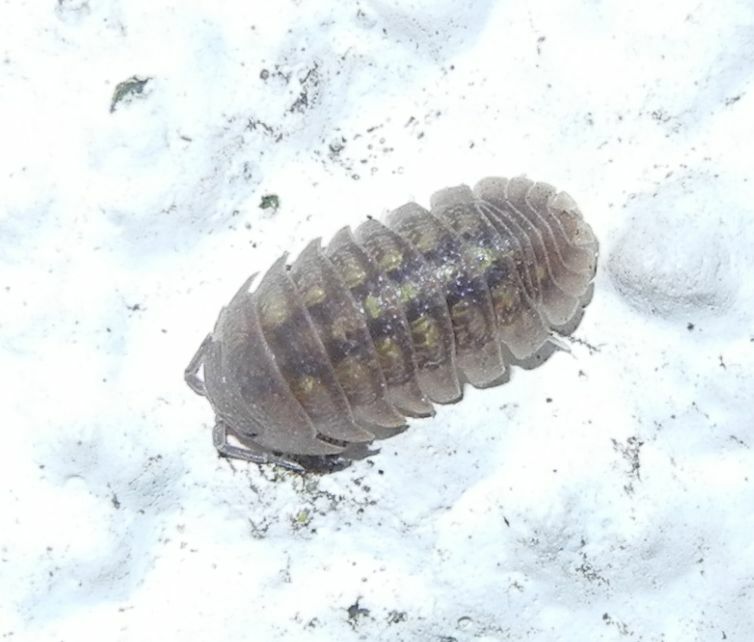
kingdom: Animalia
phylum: Arthropoda
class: Malacostraca
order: Isopoda
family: Armadillidiidae
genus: Armadillidium
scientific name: Armadillidium granulatum
